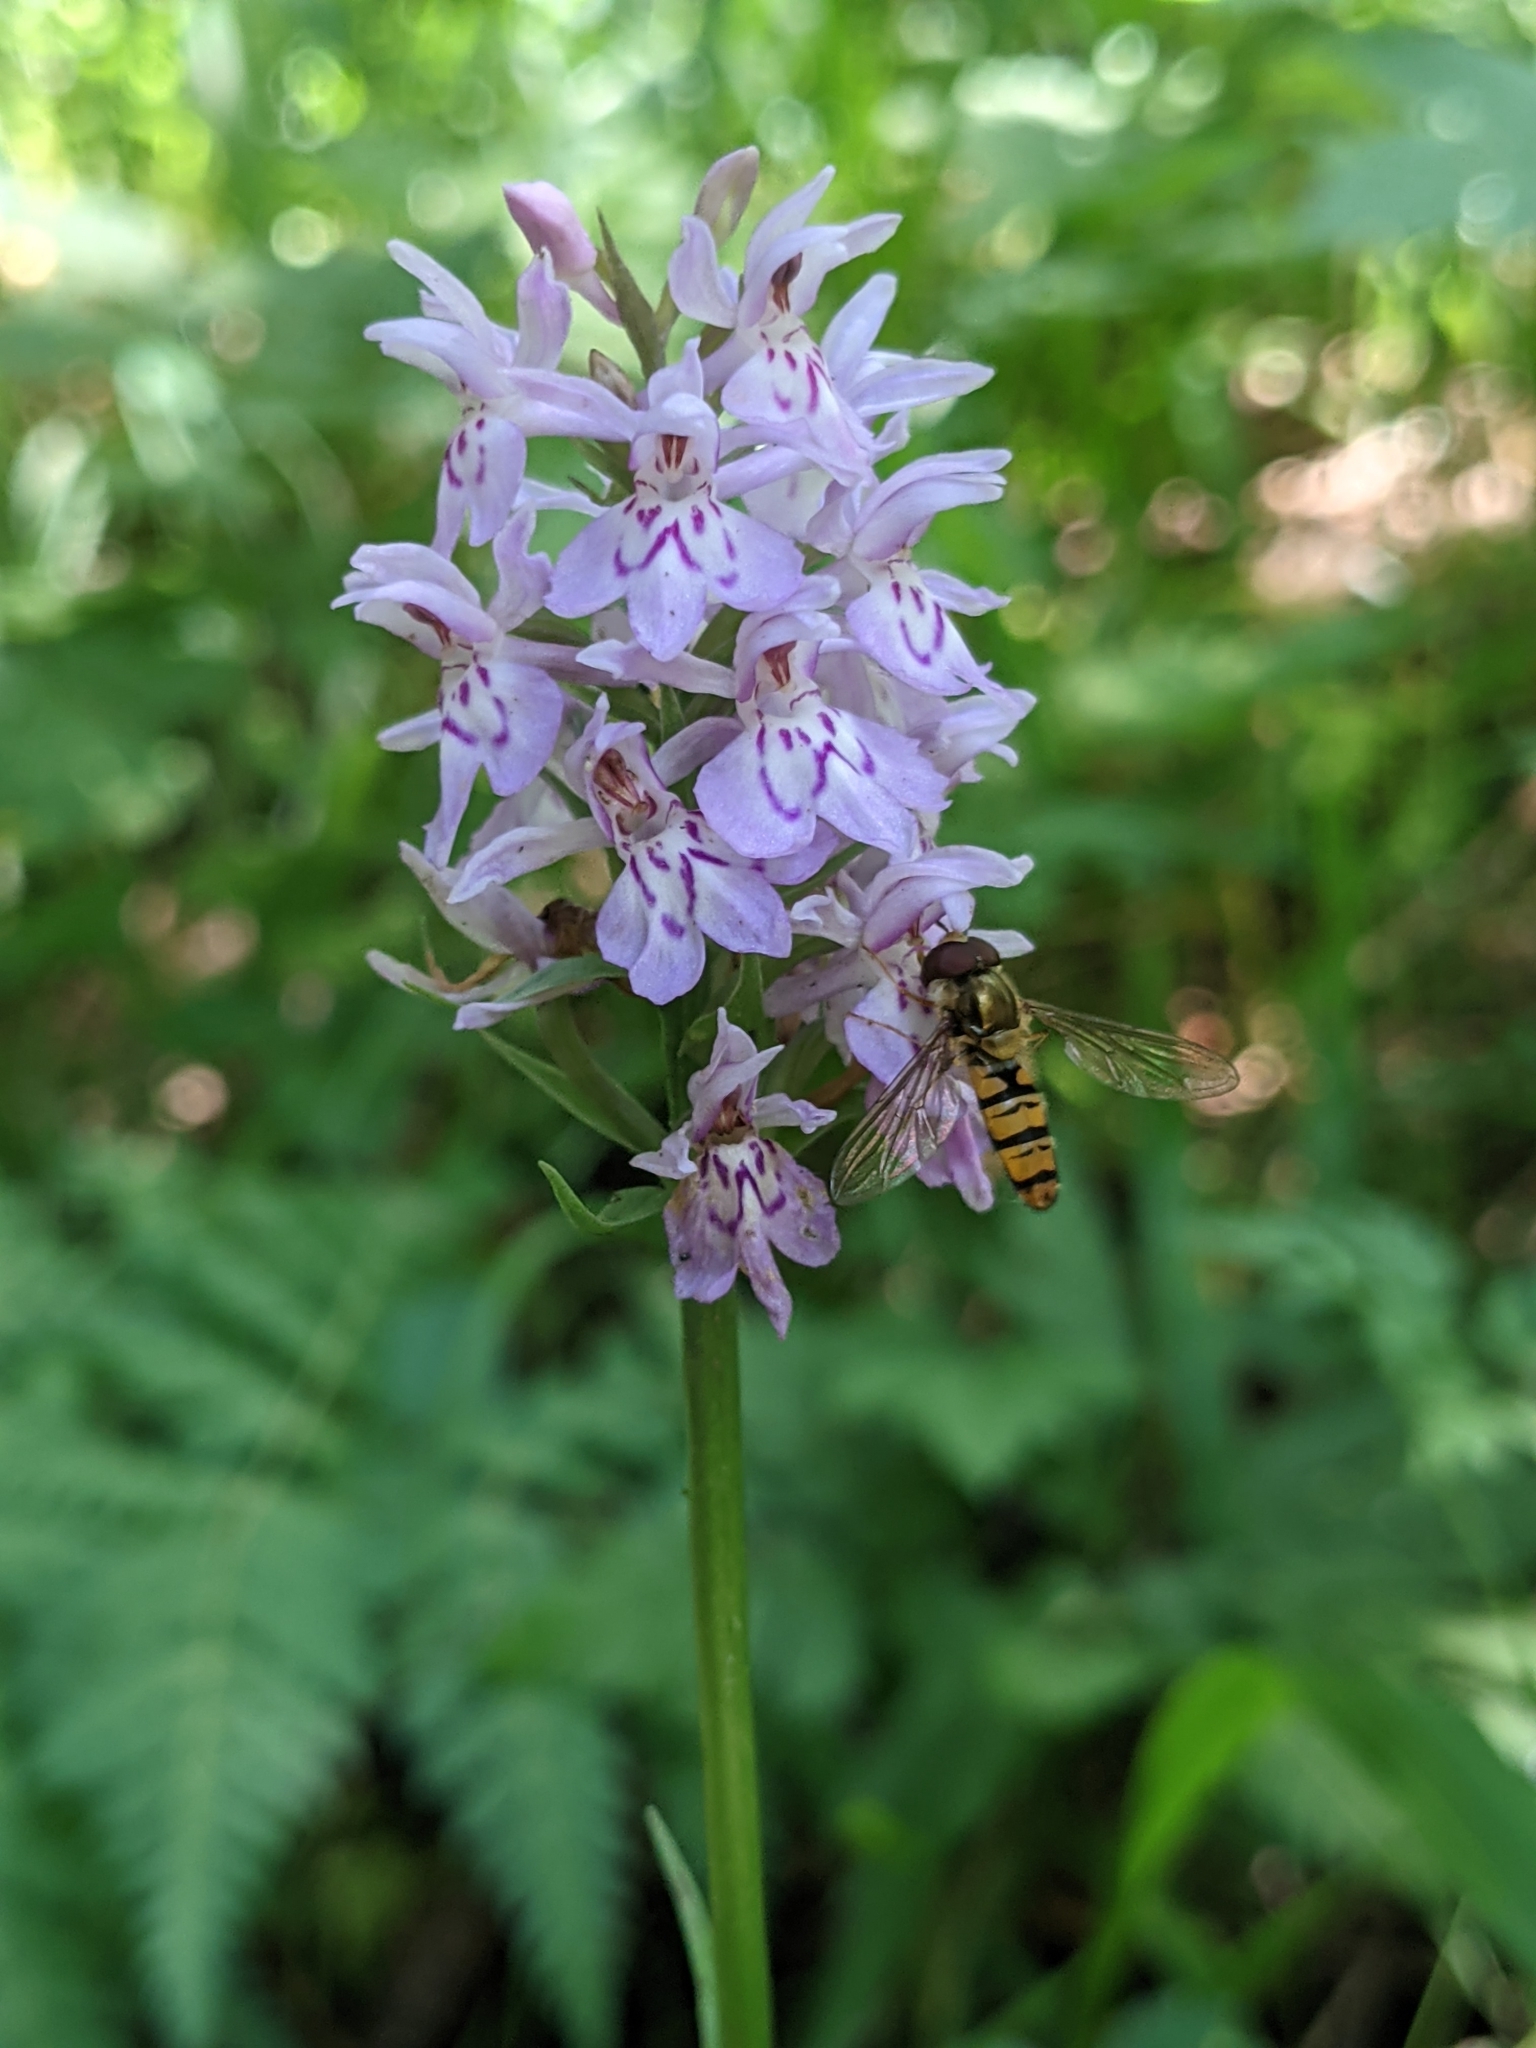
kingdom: Animalia
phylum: Arthropoda
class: Insecta
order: Diptera
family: Syrphidae
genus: Episyrphus
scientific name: Episyrphus balteatus
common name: Marmalade hoverfly
